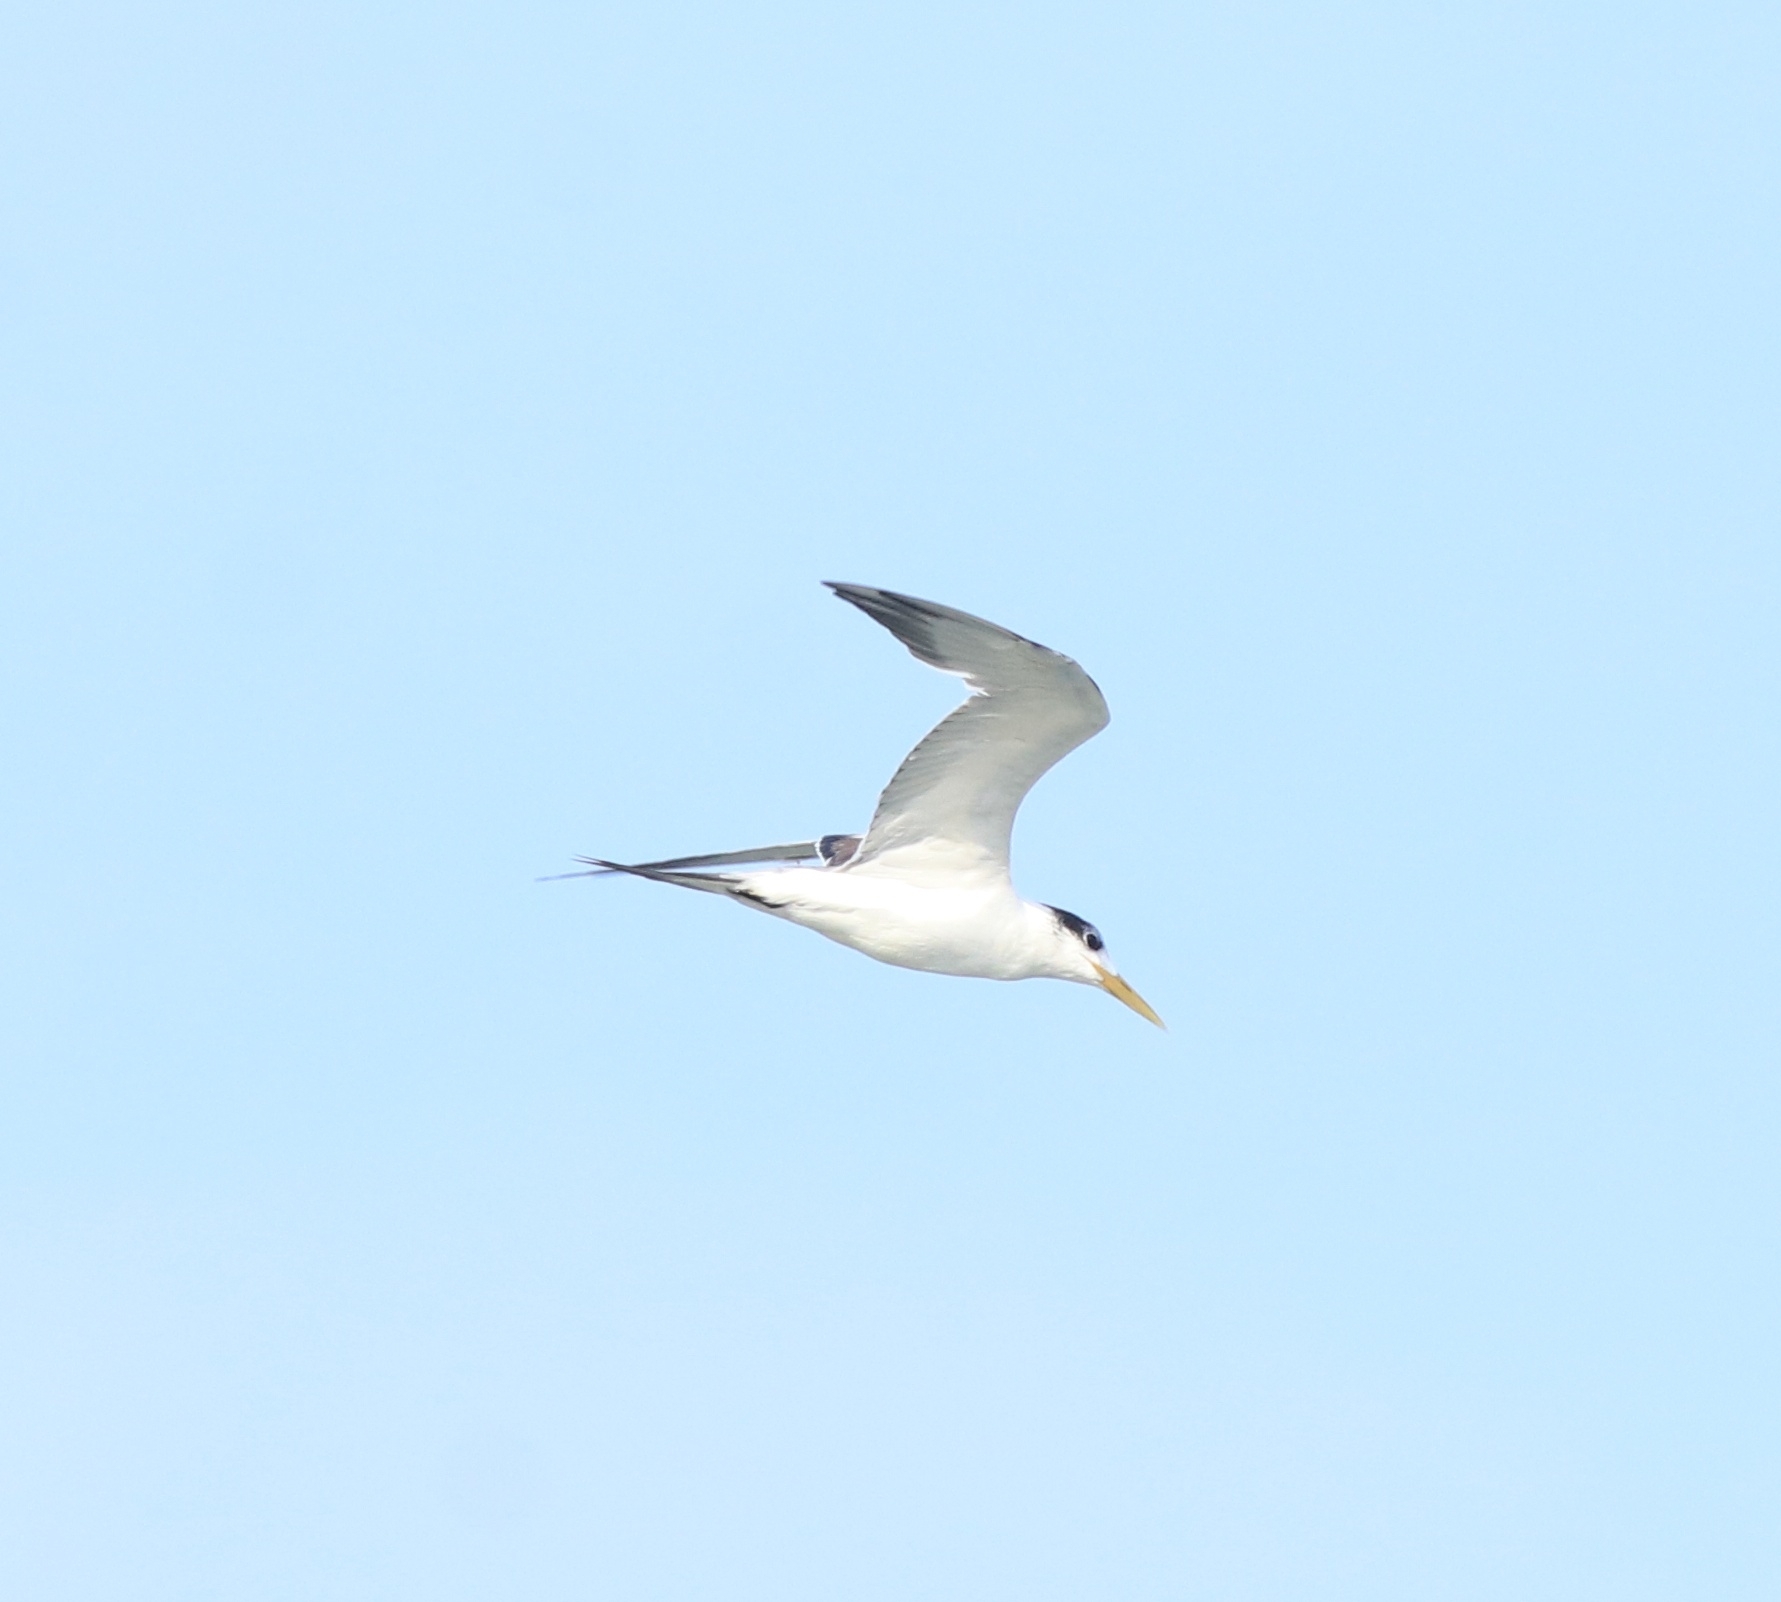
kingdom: Animalia
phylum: Chordata
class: Aves
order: Charadriiformes
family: Laridae
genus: Thalasseus
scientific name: Thalasseus bergii
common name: Greater crested tern
